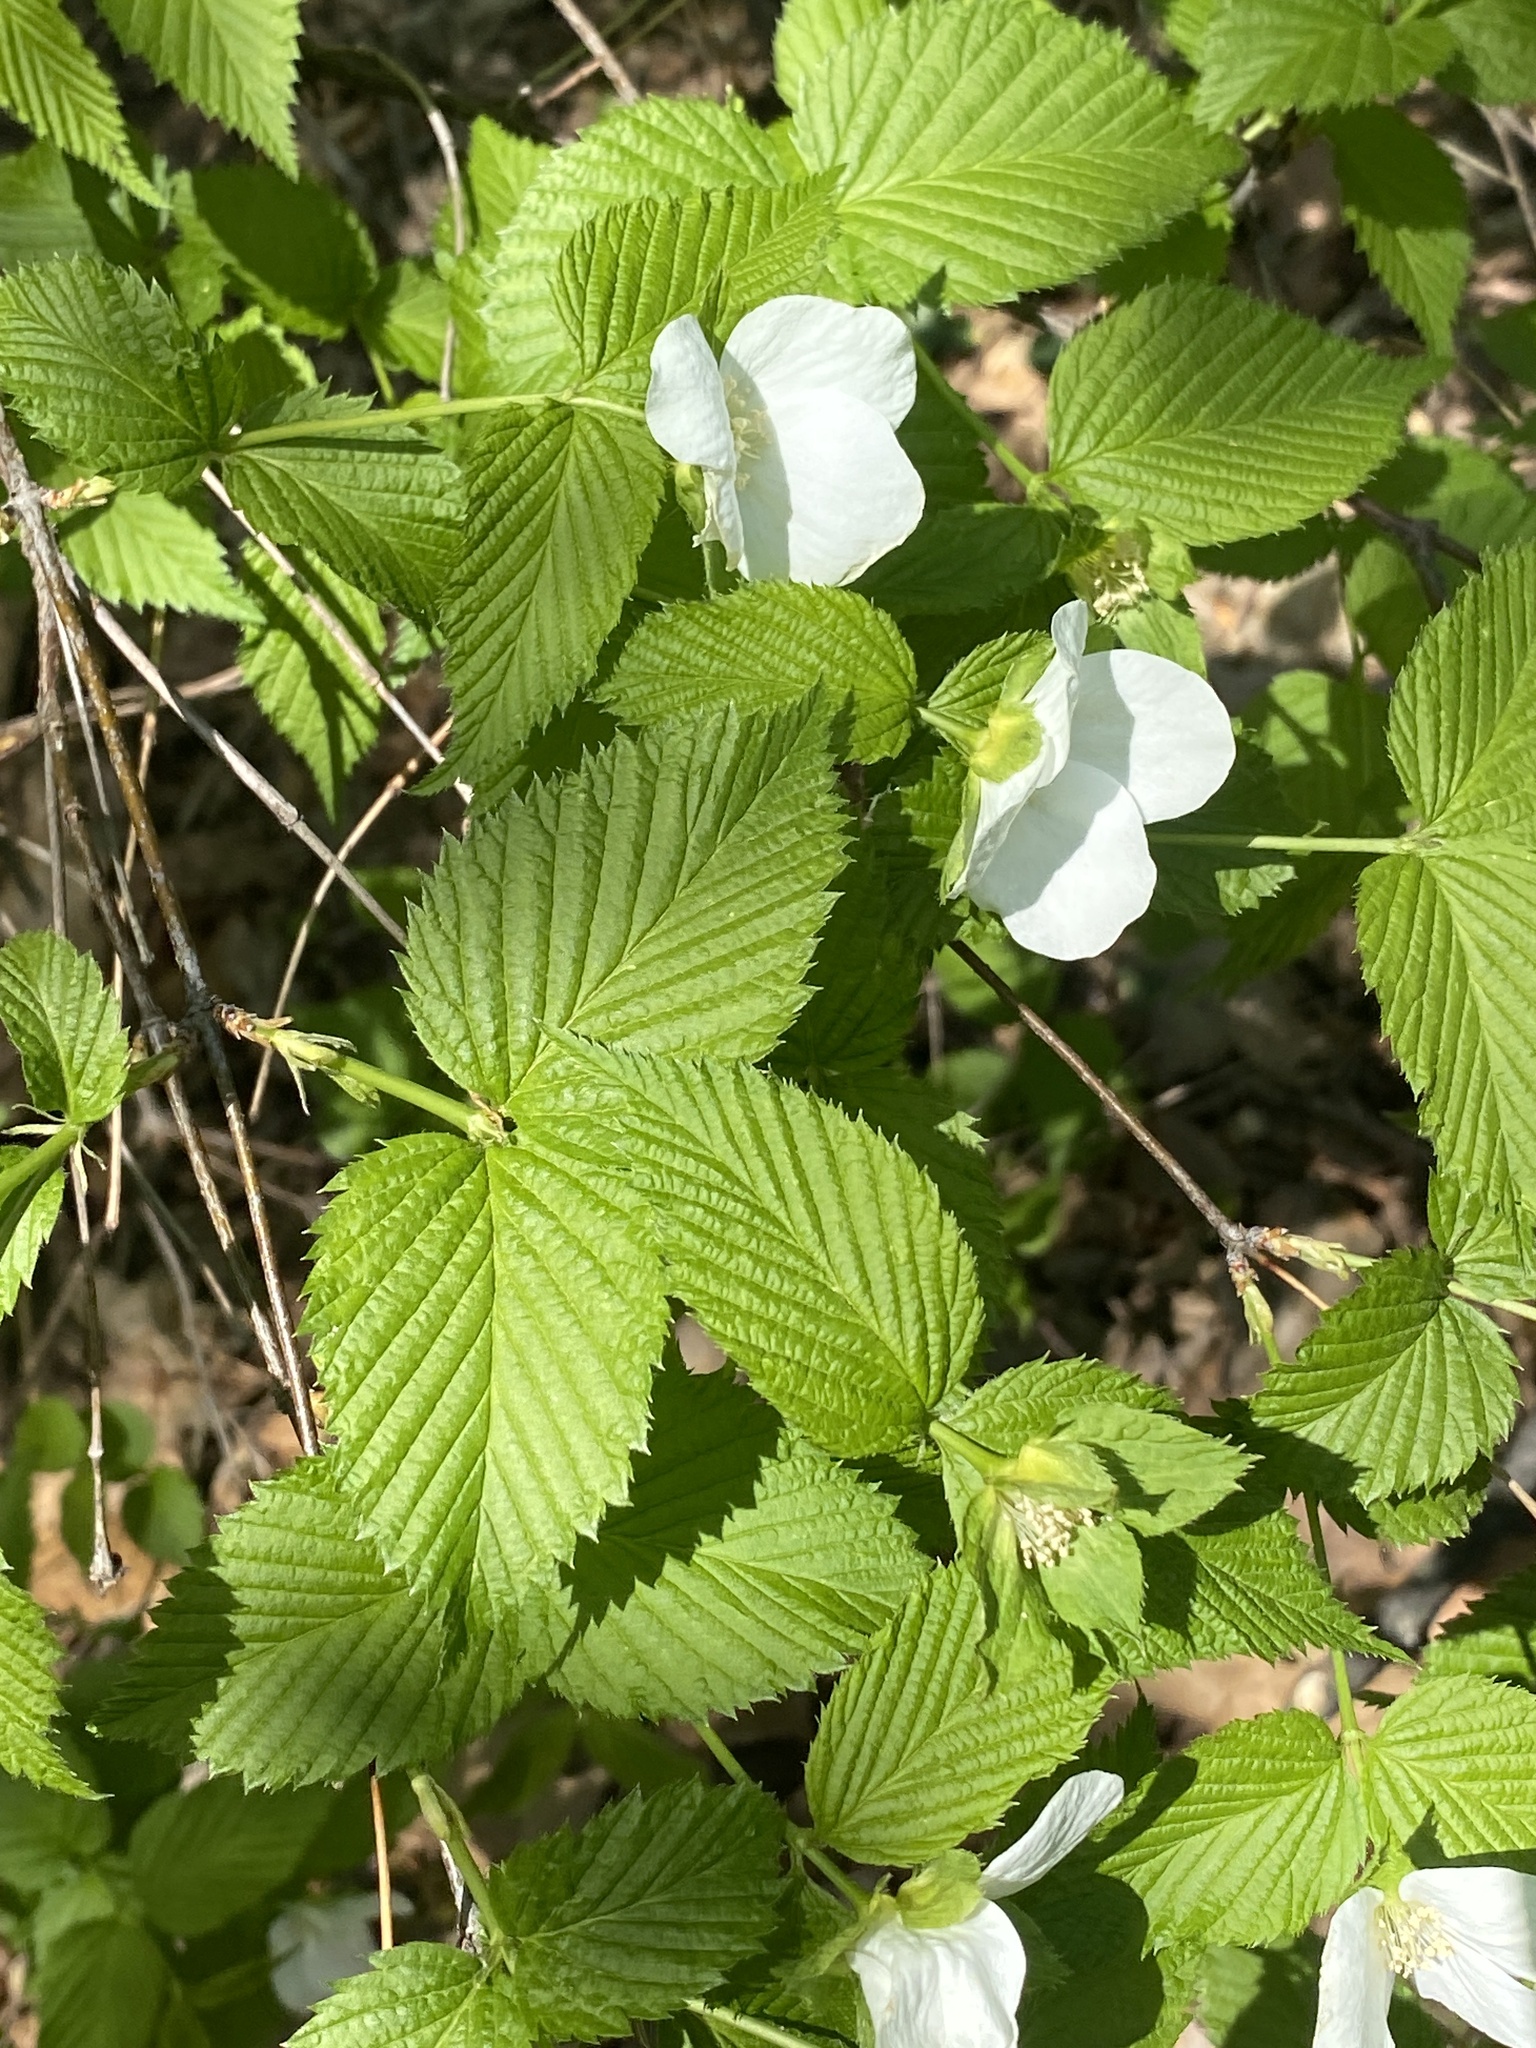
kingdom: Plantae
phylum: Tracheophyta
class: Magnoliopsida
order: Rosales
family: Rosaceae
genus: Rhodotypos
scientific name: Rhodotypos scandens
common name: Jetbead
